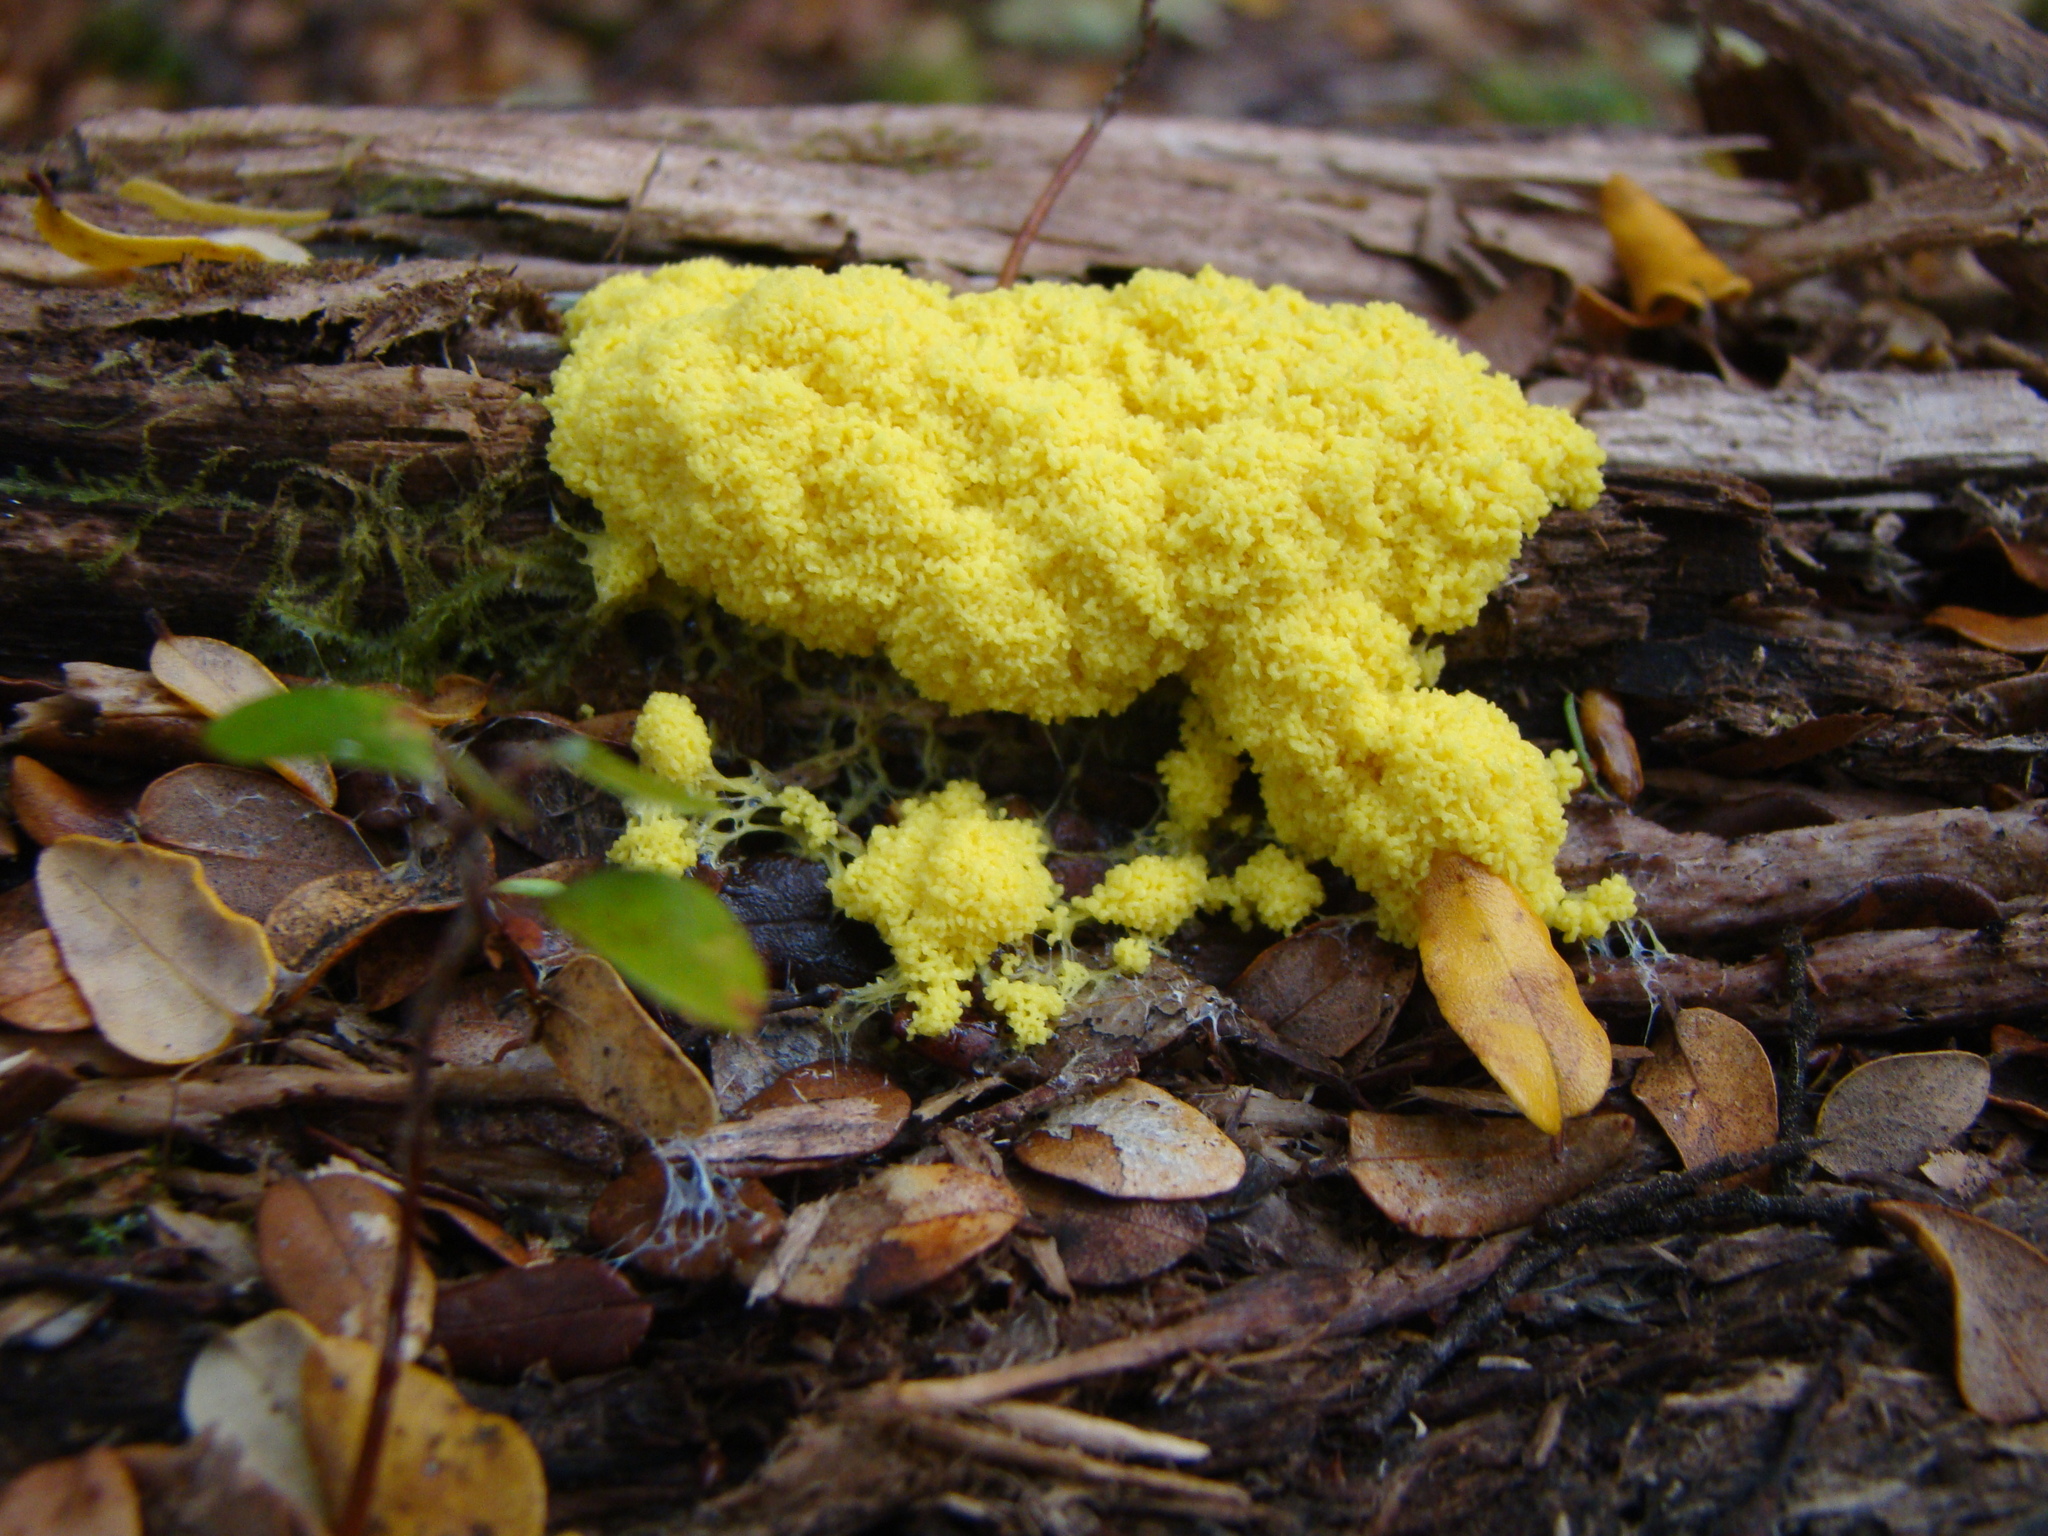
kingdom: Protozoa
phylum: Mycetozoa
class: Myxomycetes
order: Physarales
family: Physaraceae
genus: Fuligo
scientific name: Fuligo septica
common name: Dog vomit slime mold
